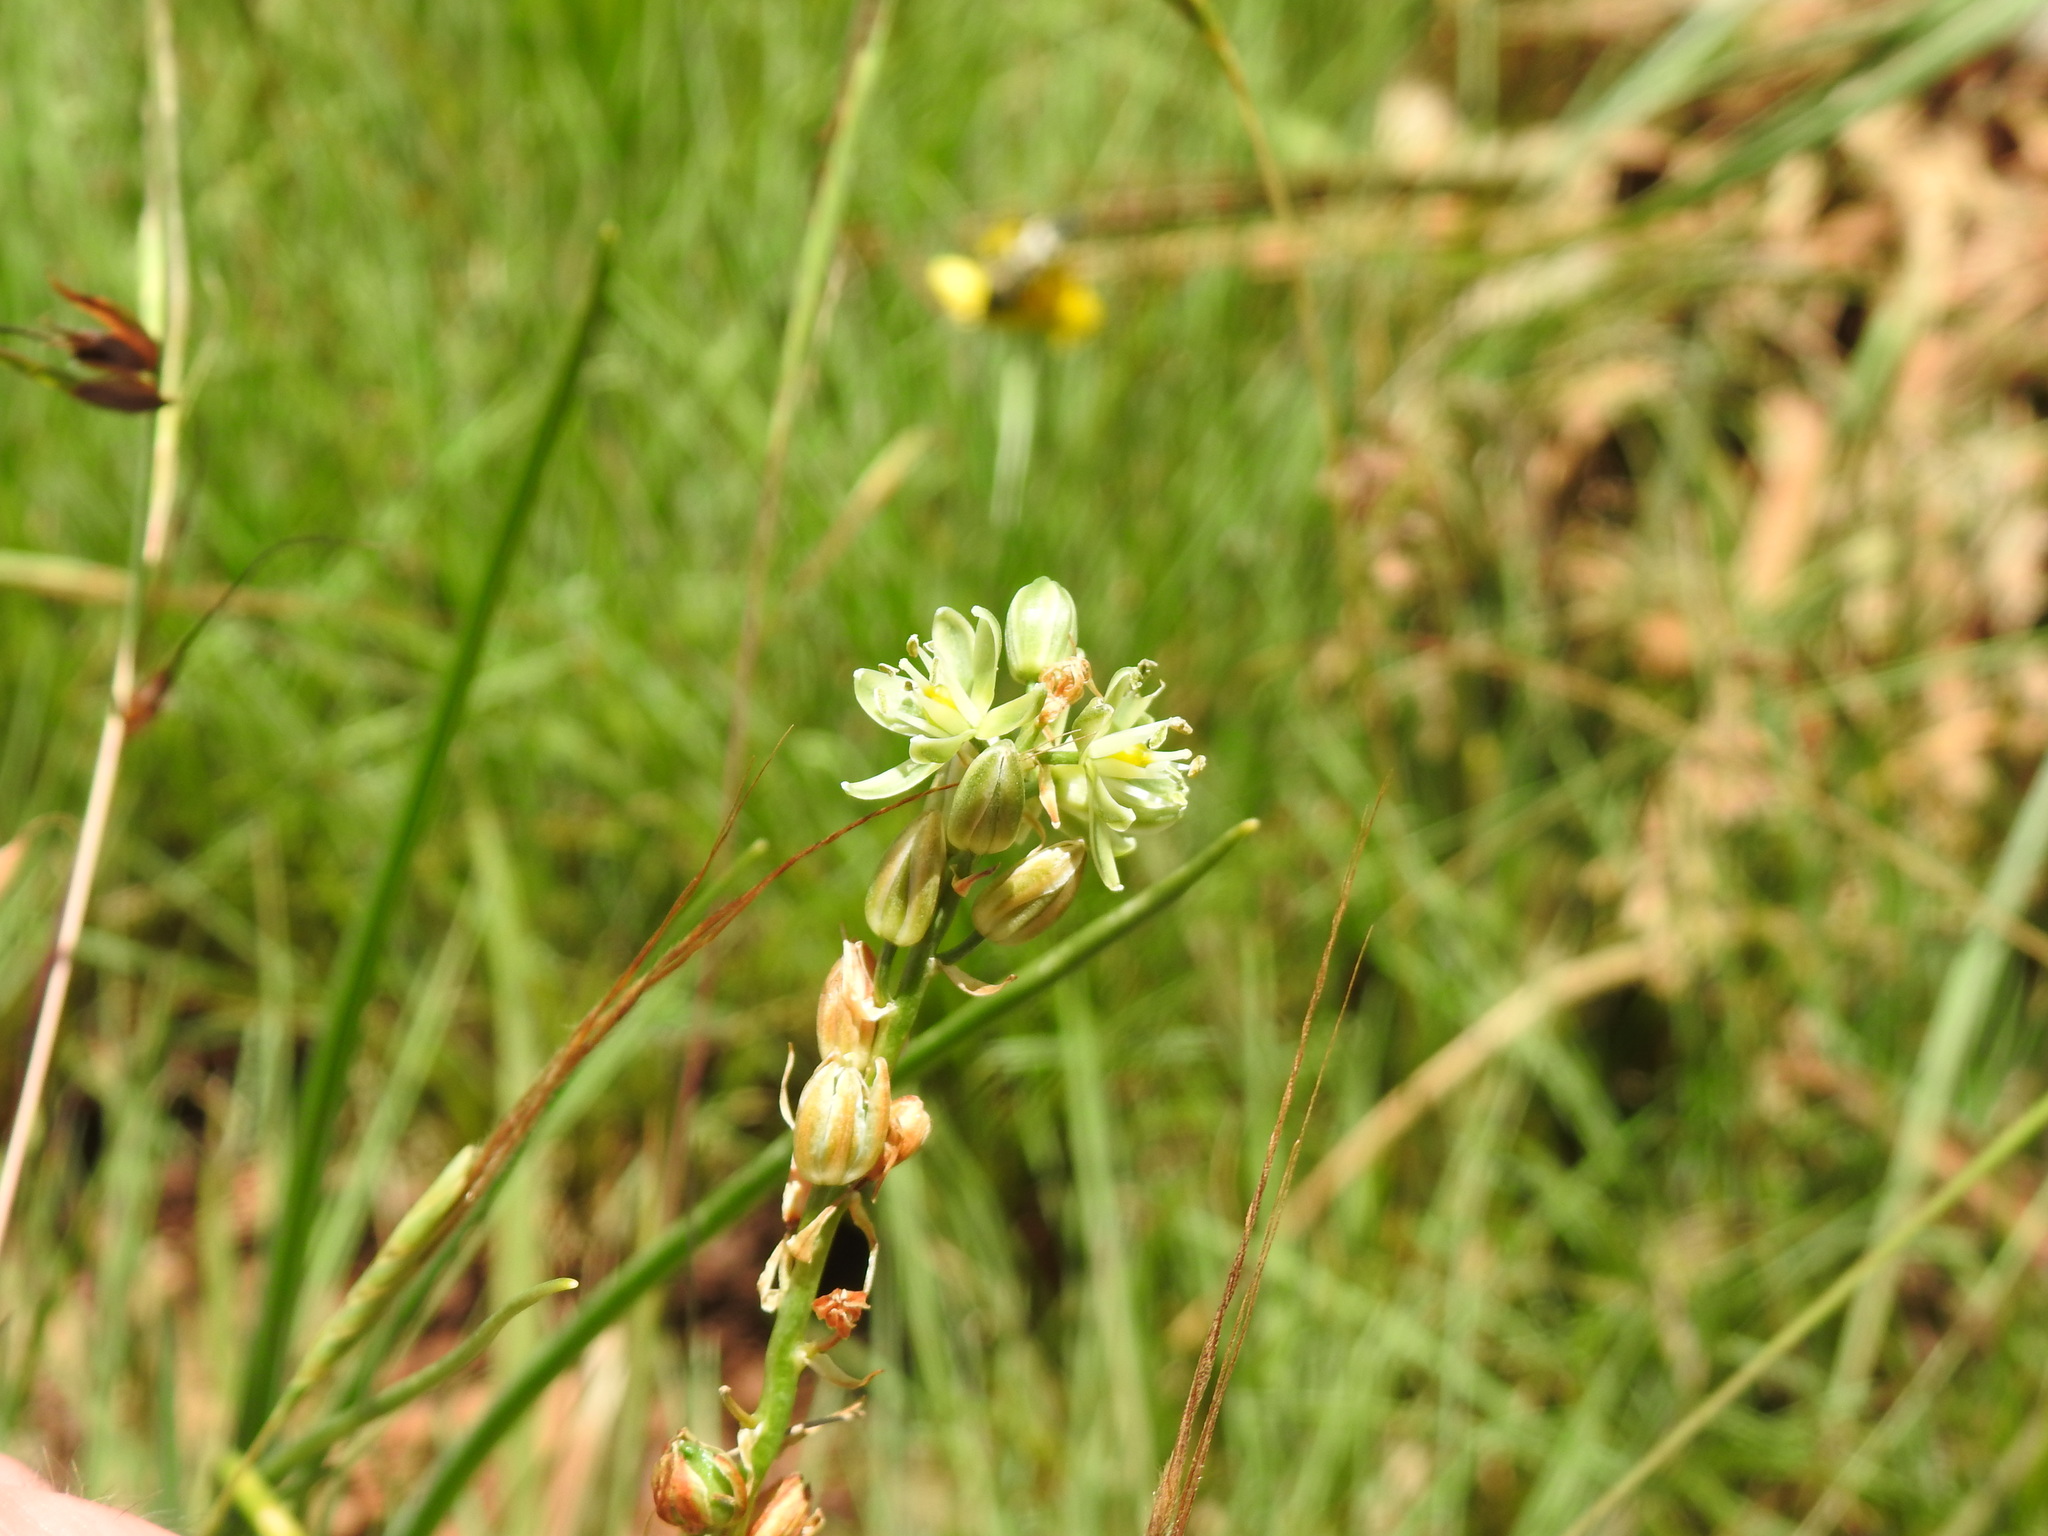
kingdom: Plantae
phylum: Tracheophyta
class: Liliopsida
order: Asparagales
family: Asparagaceae
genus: Albuca
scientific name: Albuca virens
